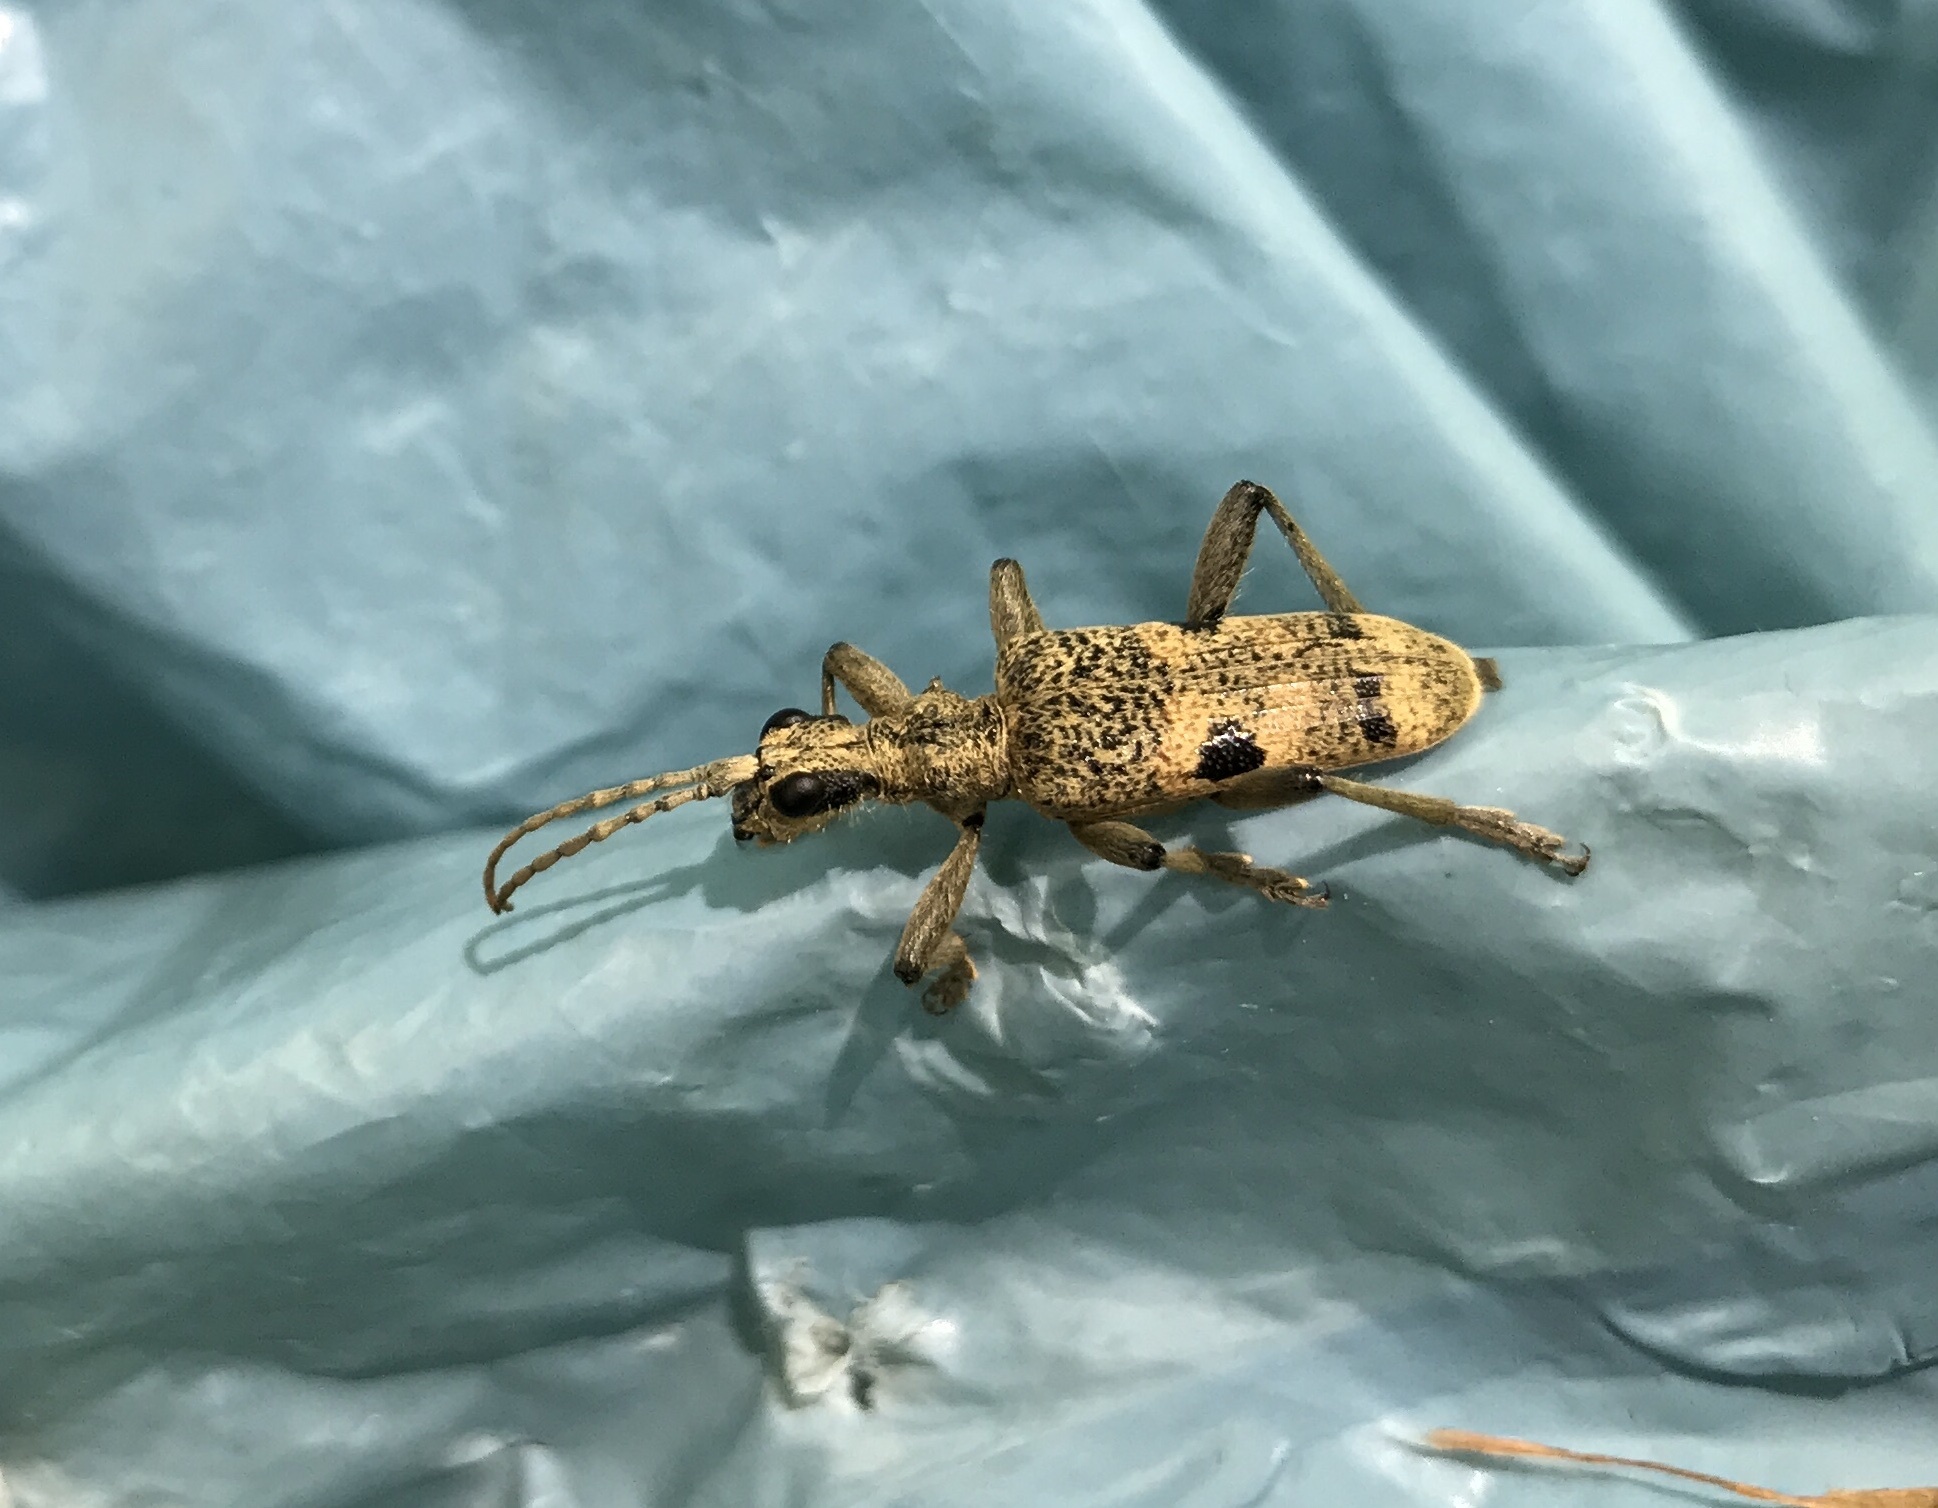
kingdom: Animalia
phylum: Arthropoda
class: Insecta
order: Coleoptera
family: Cerambycidae
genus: Rhagium
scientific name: Rhagium mordax
